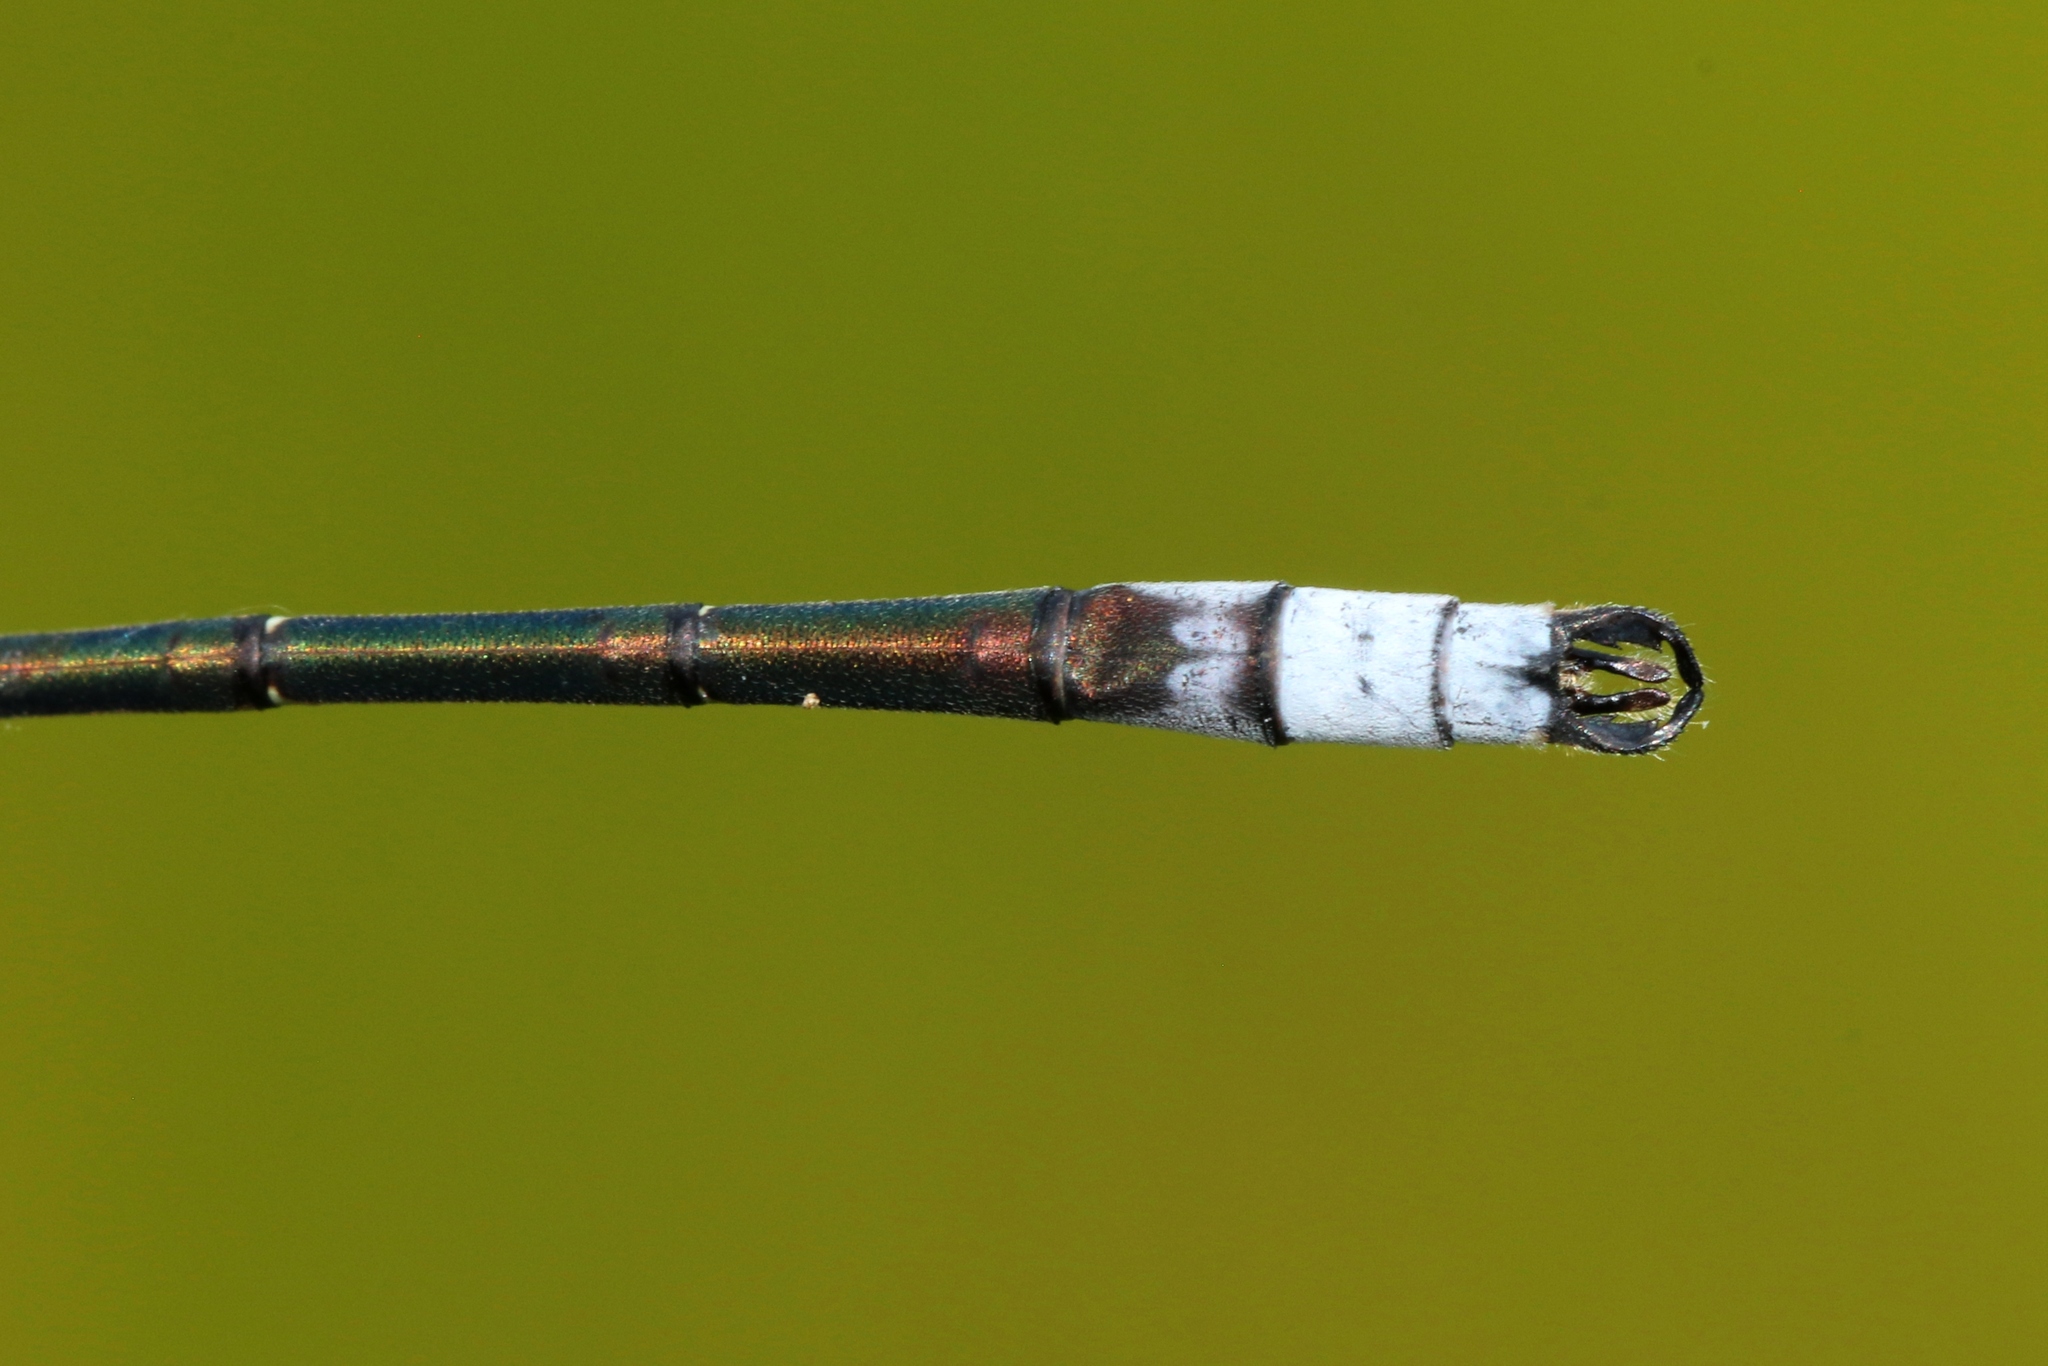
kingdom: Animalia
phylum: Arthropoda
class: Insecta
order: Odonata
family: Lestidae
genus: Lestes
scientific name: Lestes disjunctus
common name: Northern spreadwing
